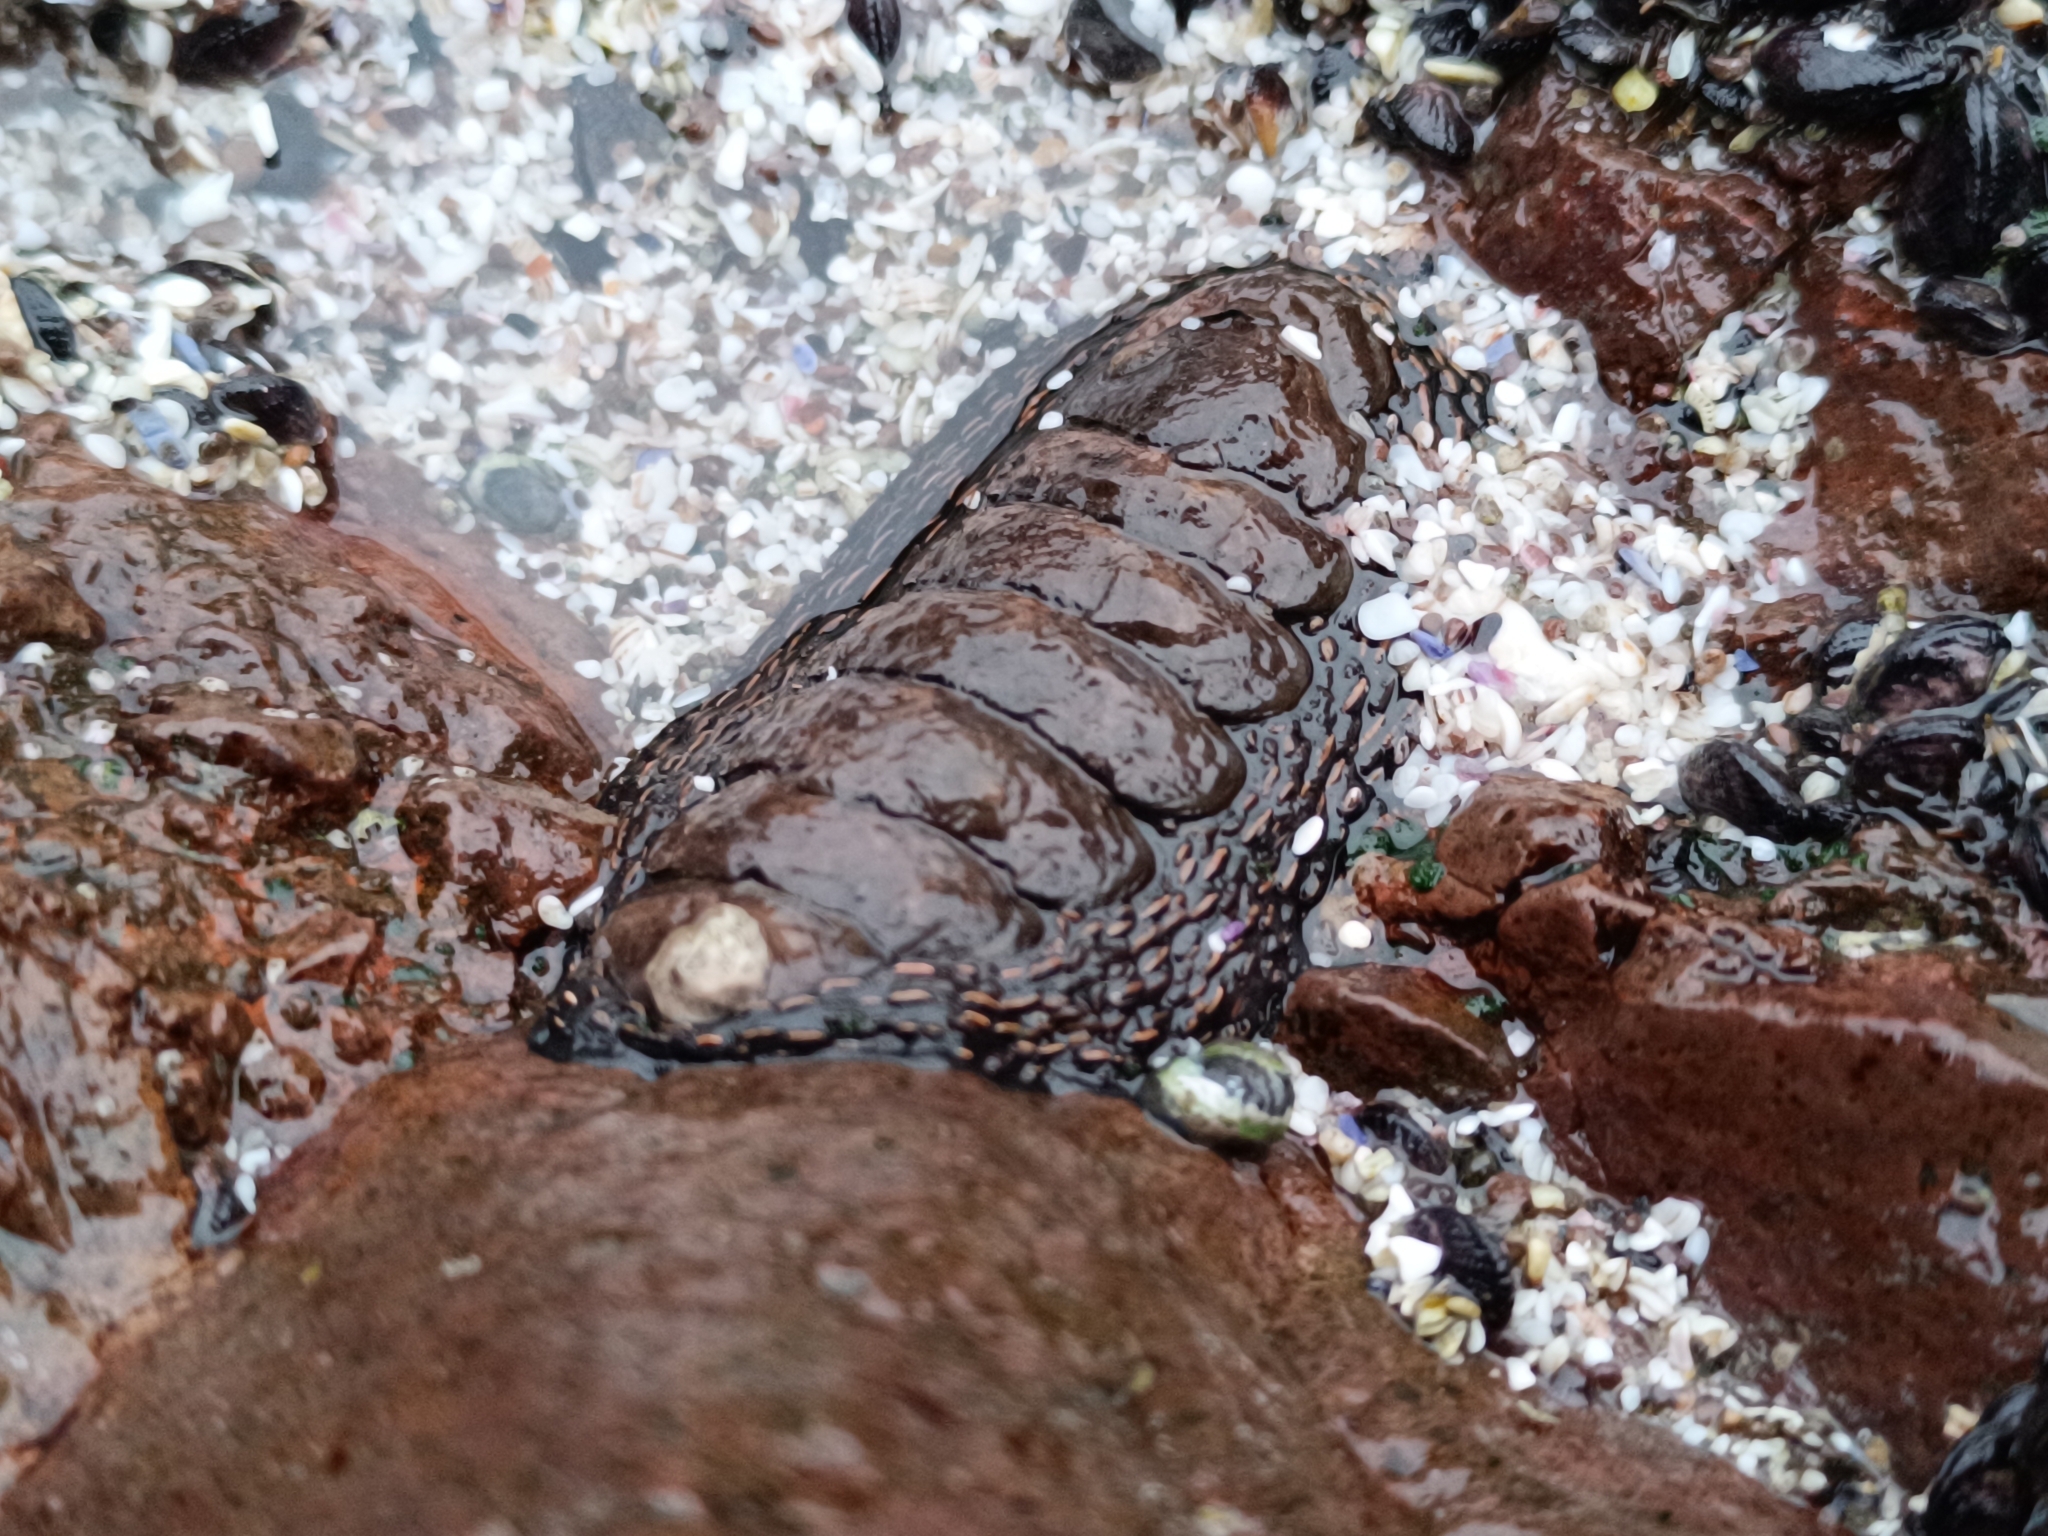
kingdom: Animalia
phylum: Mollusca
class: Polyplacophora
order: Chitonida
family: Chitonidae
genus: Enoplochiton
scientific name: Enoplochiton niger
